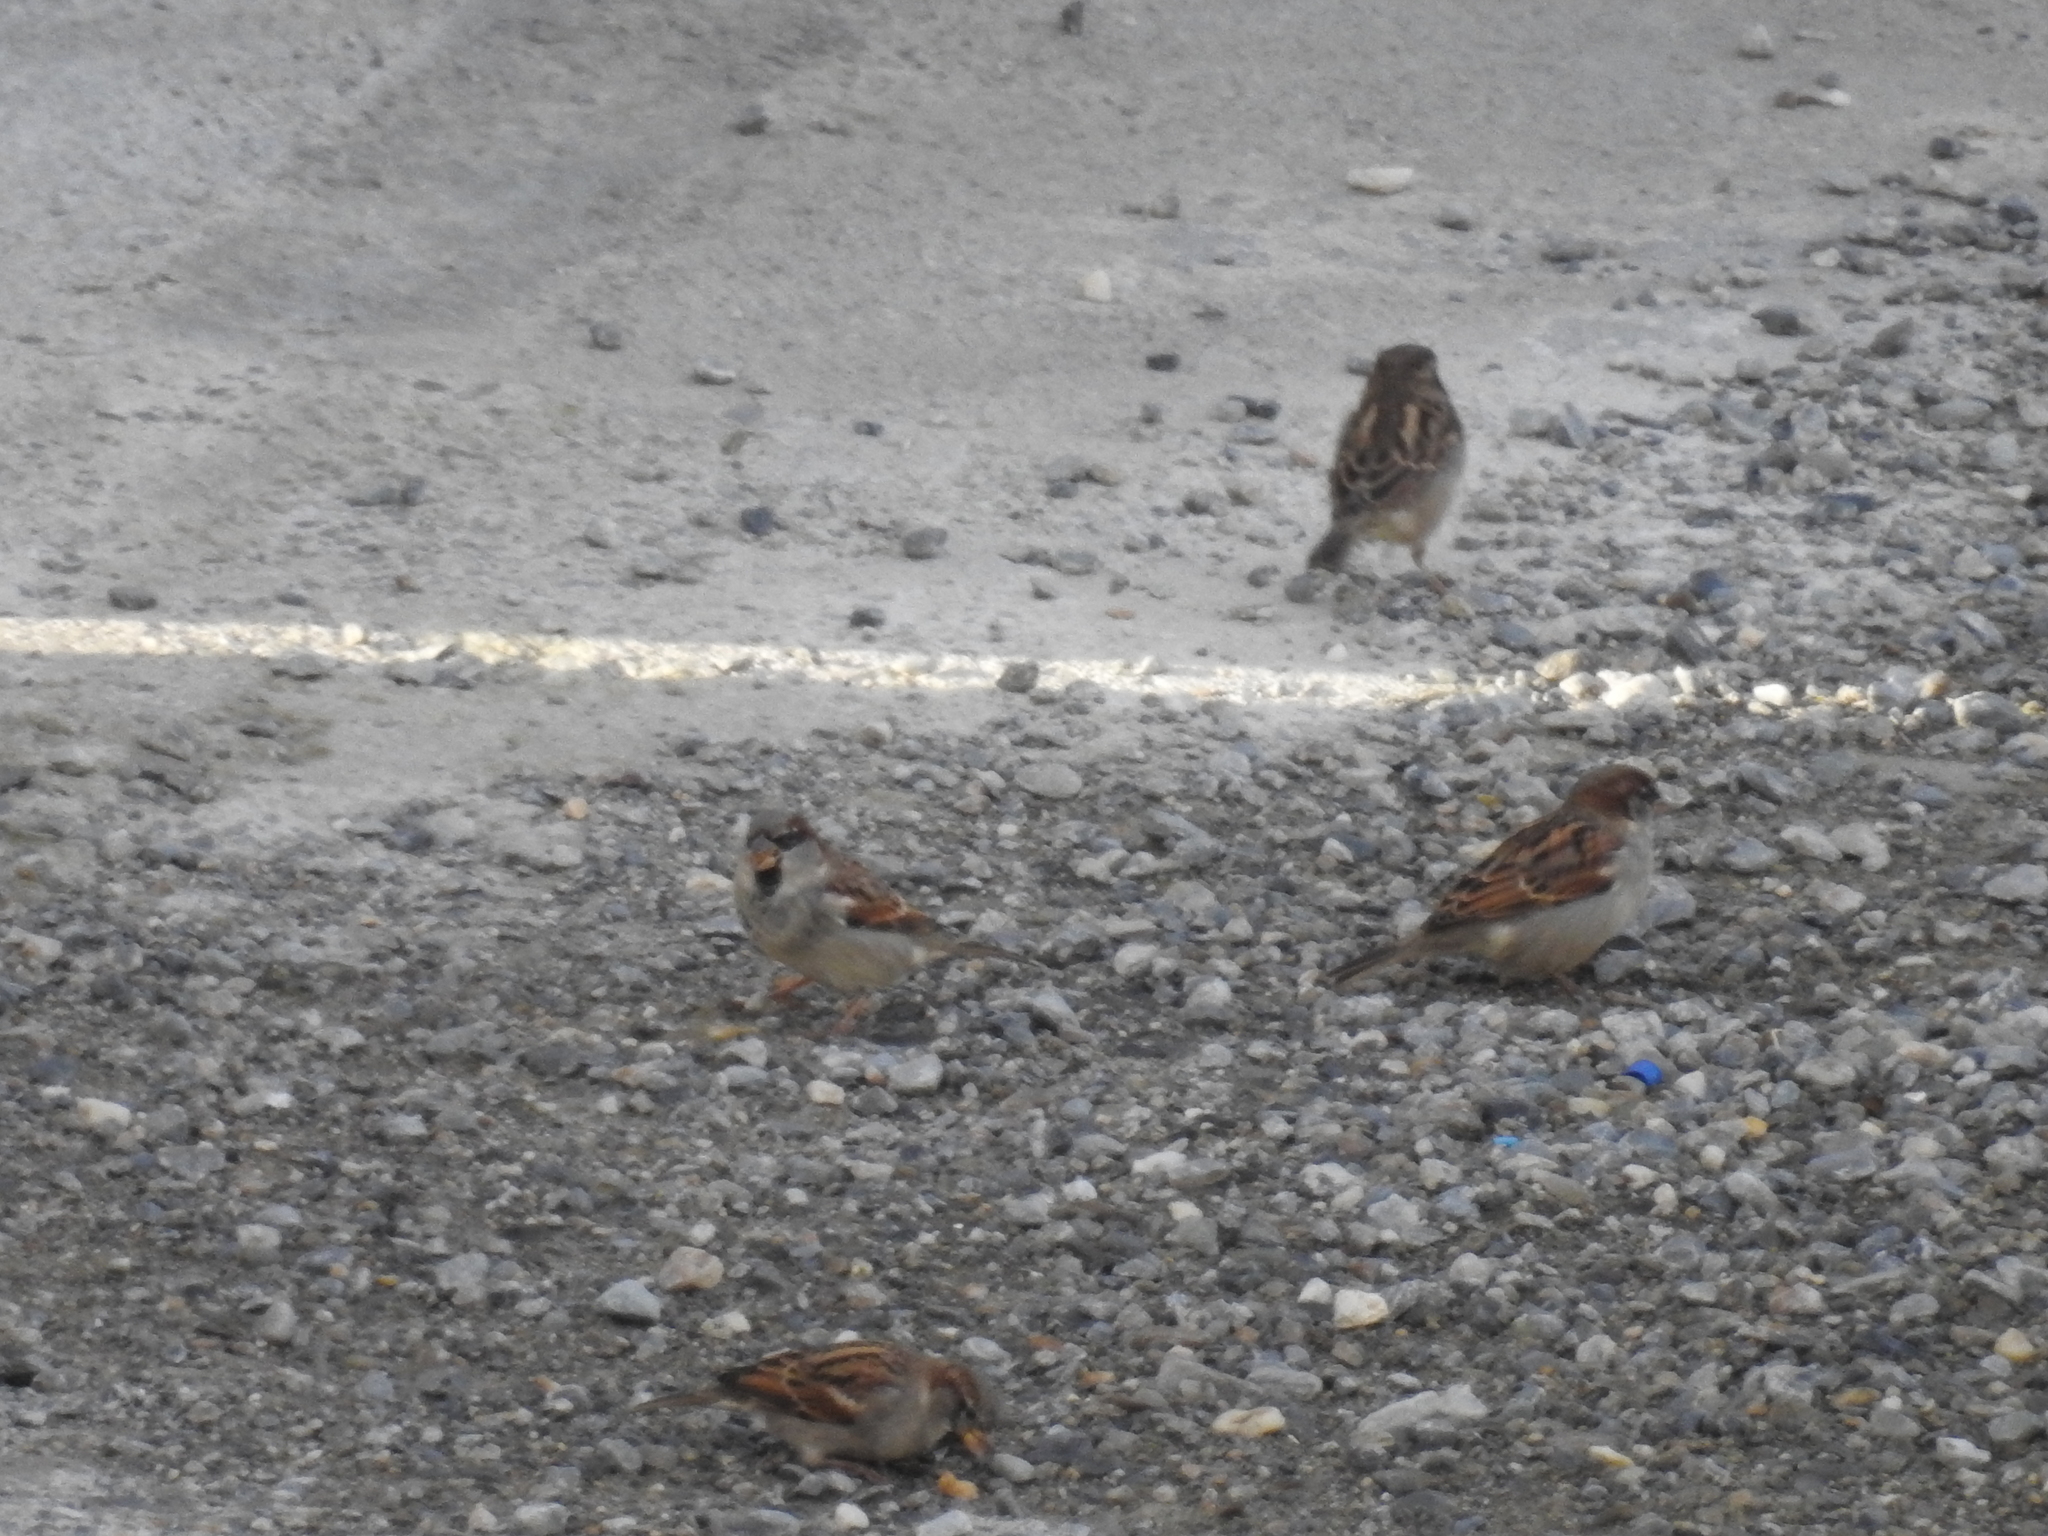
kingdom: Animalia
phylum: Chordata
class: Aves
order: Passeriformes
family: Passeridae
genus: Passer
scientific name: Passer domesticus
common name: House sparrow
